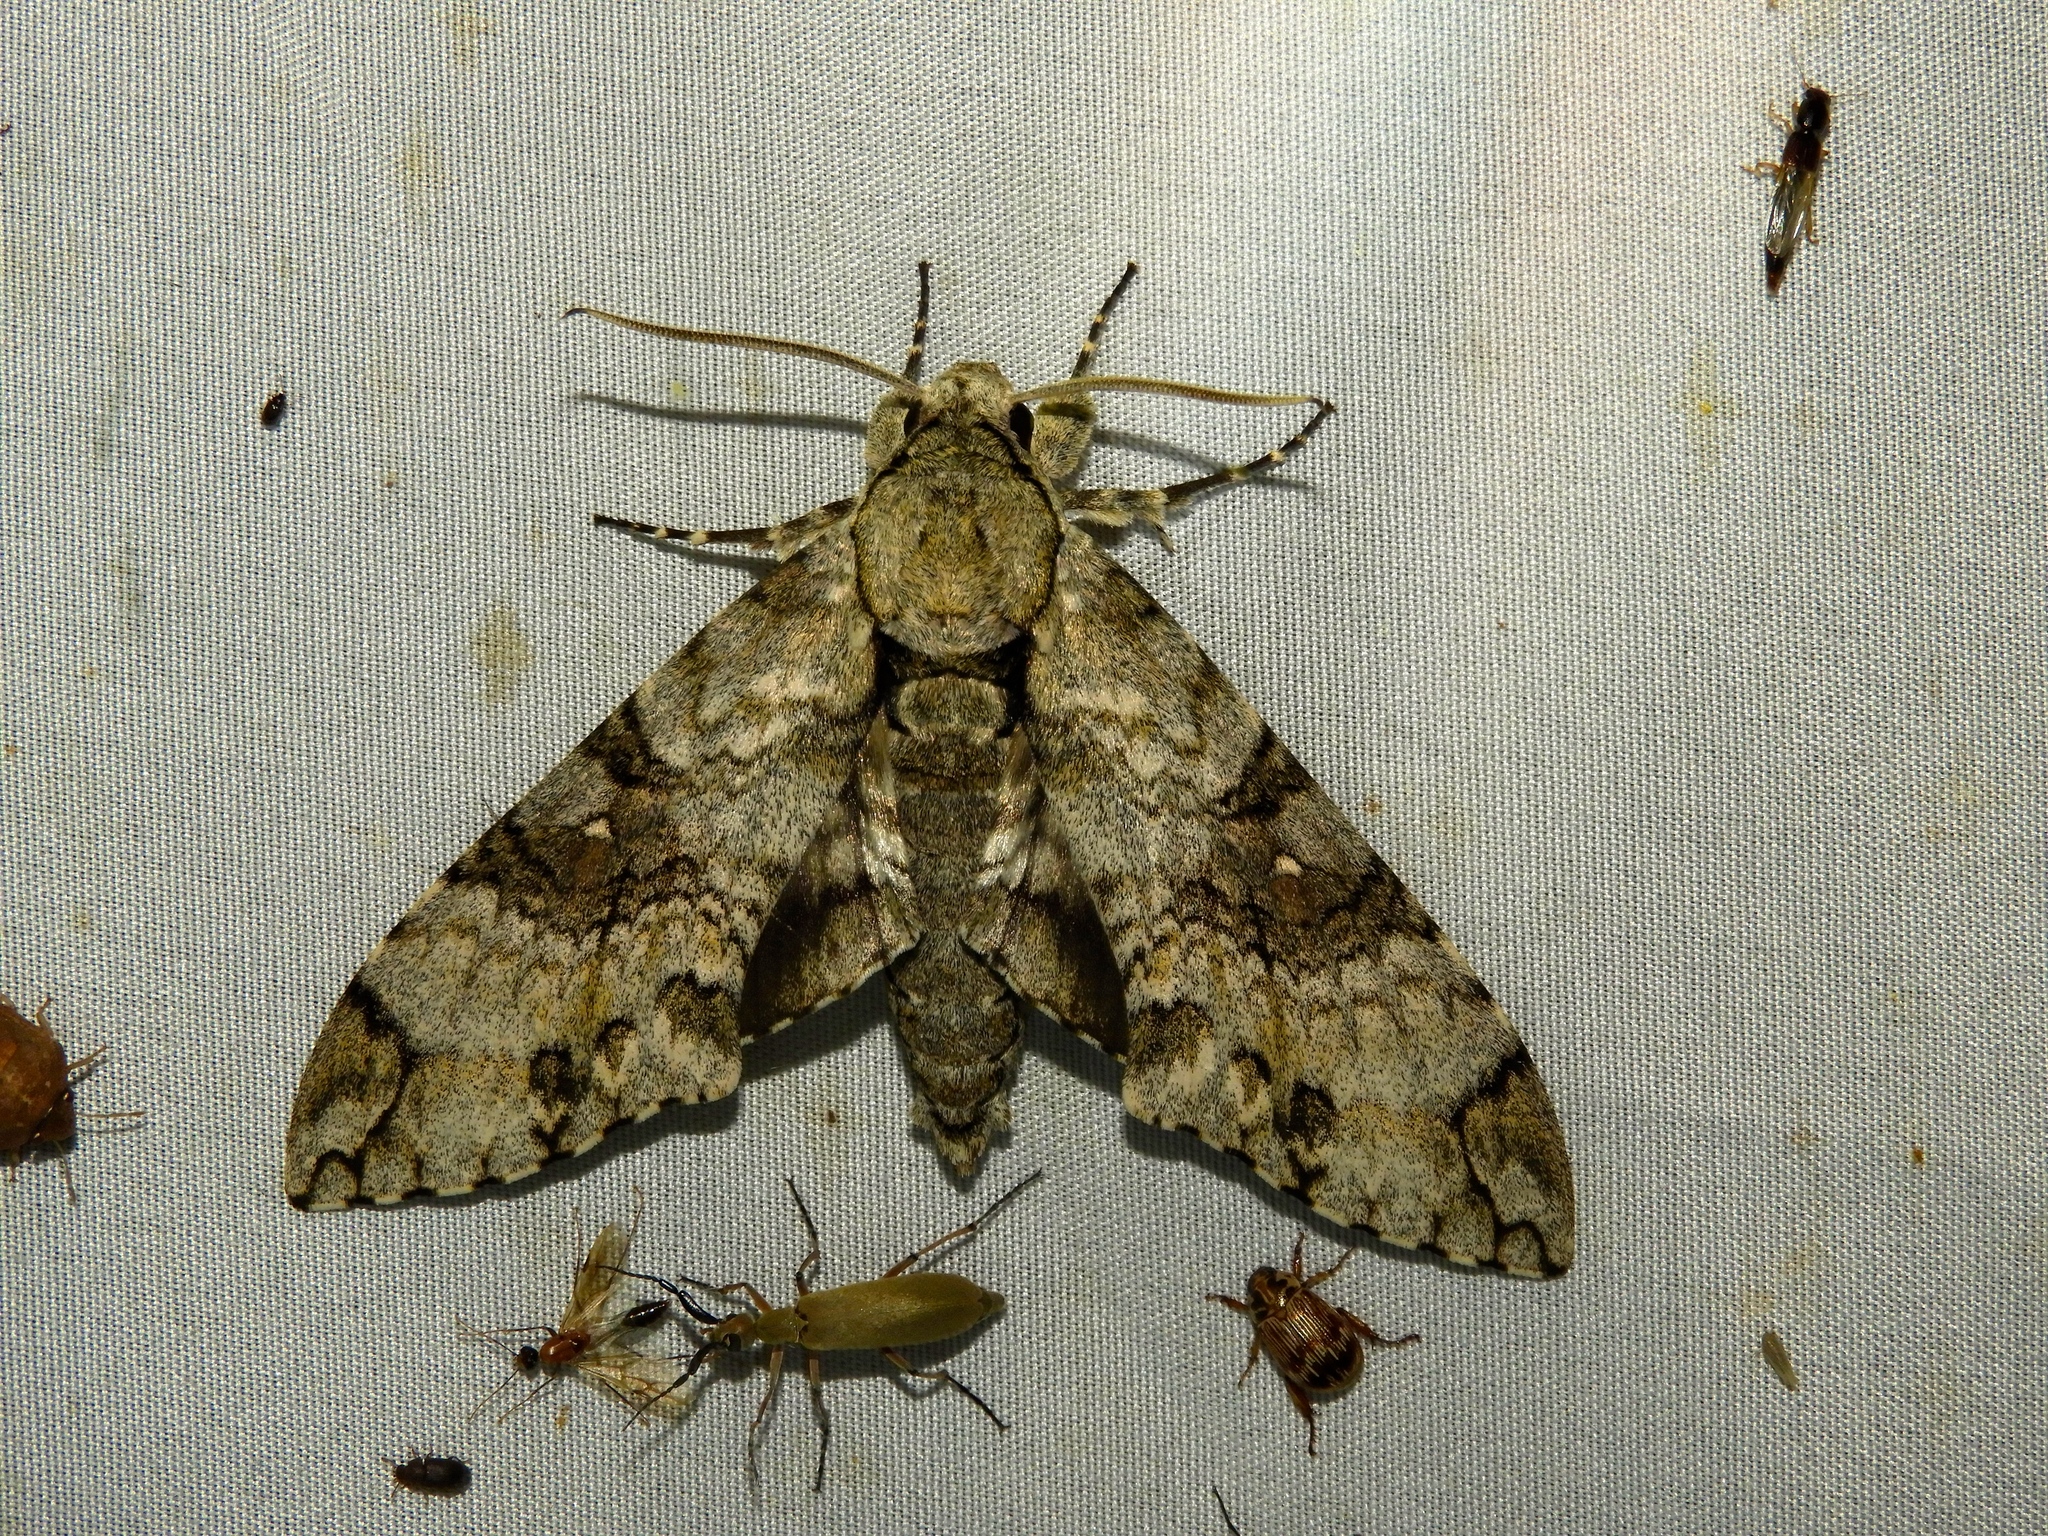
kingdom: Animalia
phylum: Arthropoda
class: Insecta
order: Lepidoptera
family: Sphingidae
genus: Manduca
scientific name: Manduca florestan
